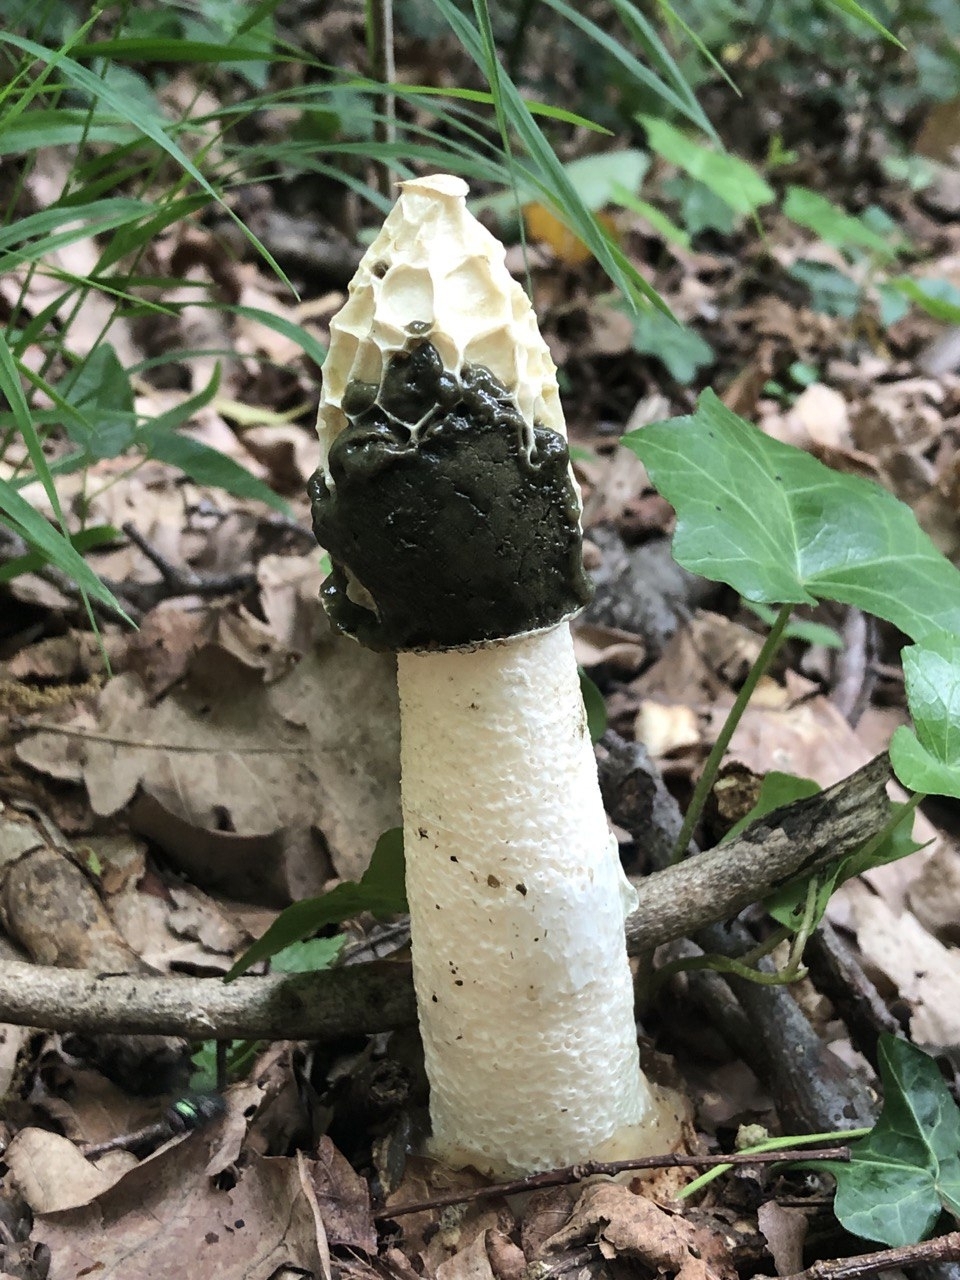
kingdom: Fungi
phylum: Basidiomycota
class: Agaricomycetes
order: Phallales
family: Phallaceae
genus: Phallus
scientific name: Phallus impudicus
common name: Common stinkhorn
